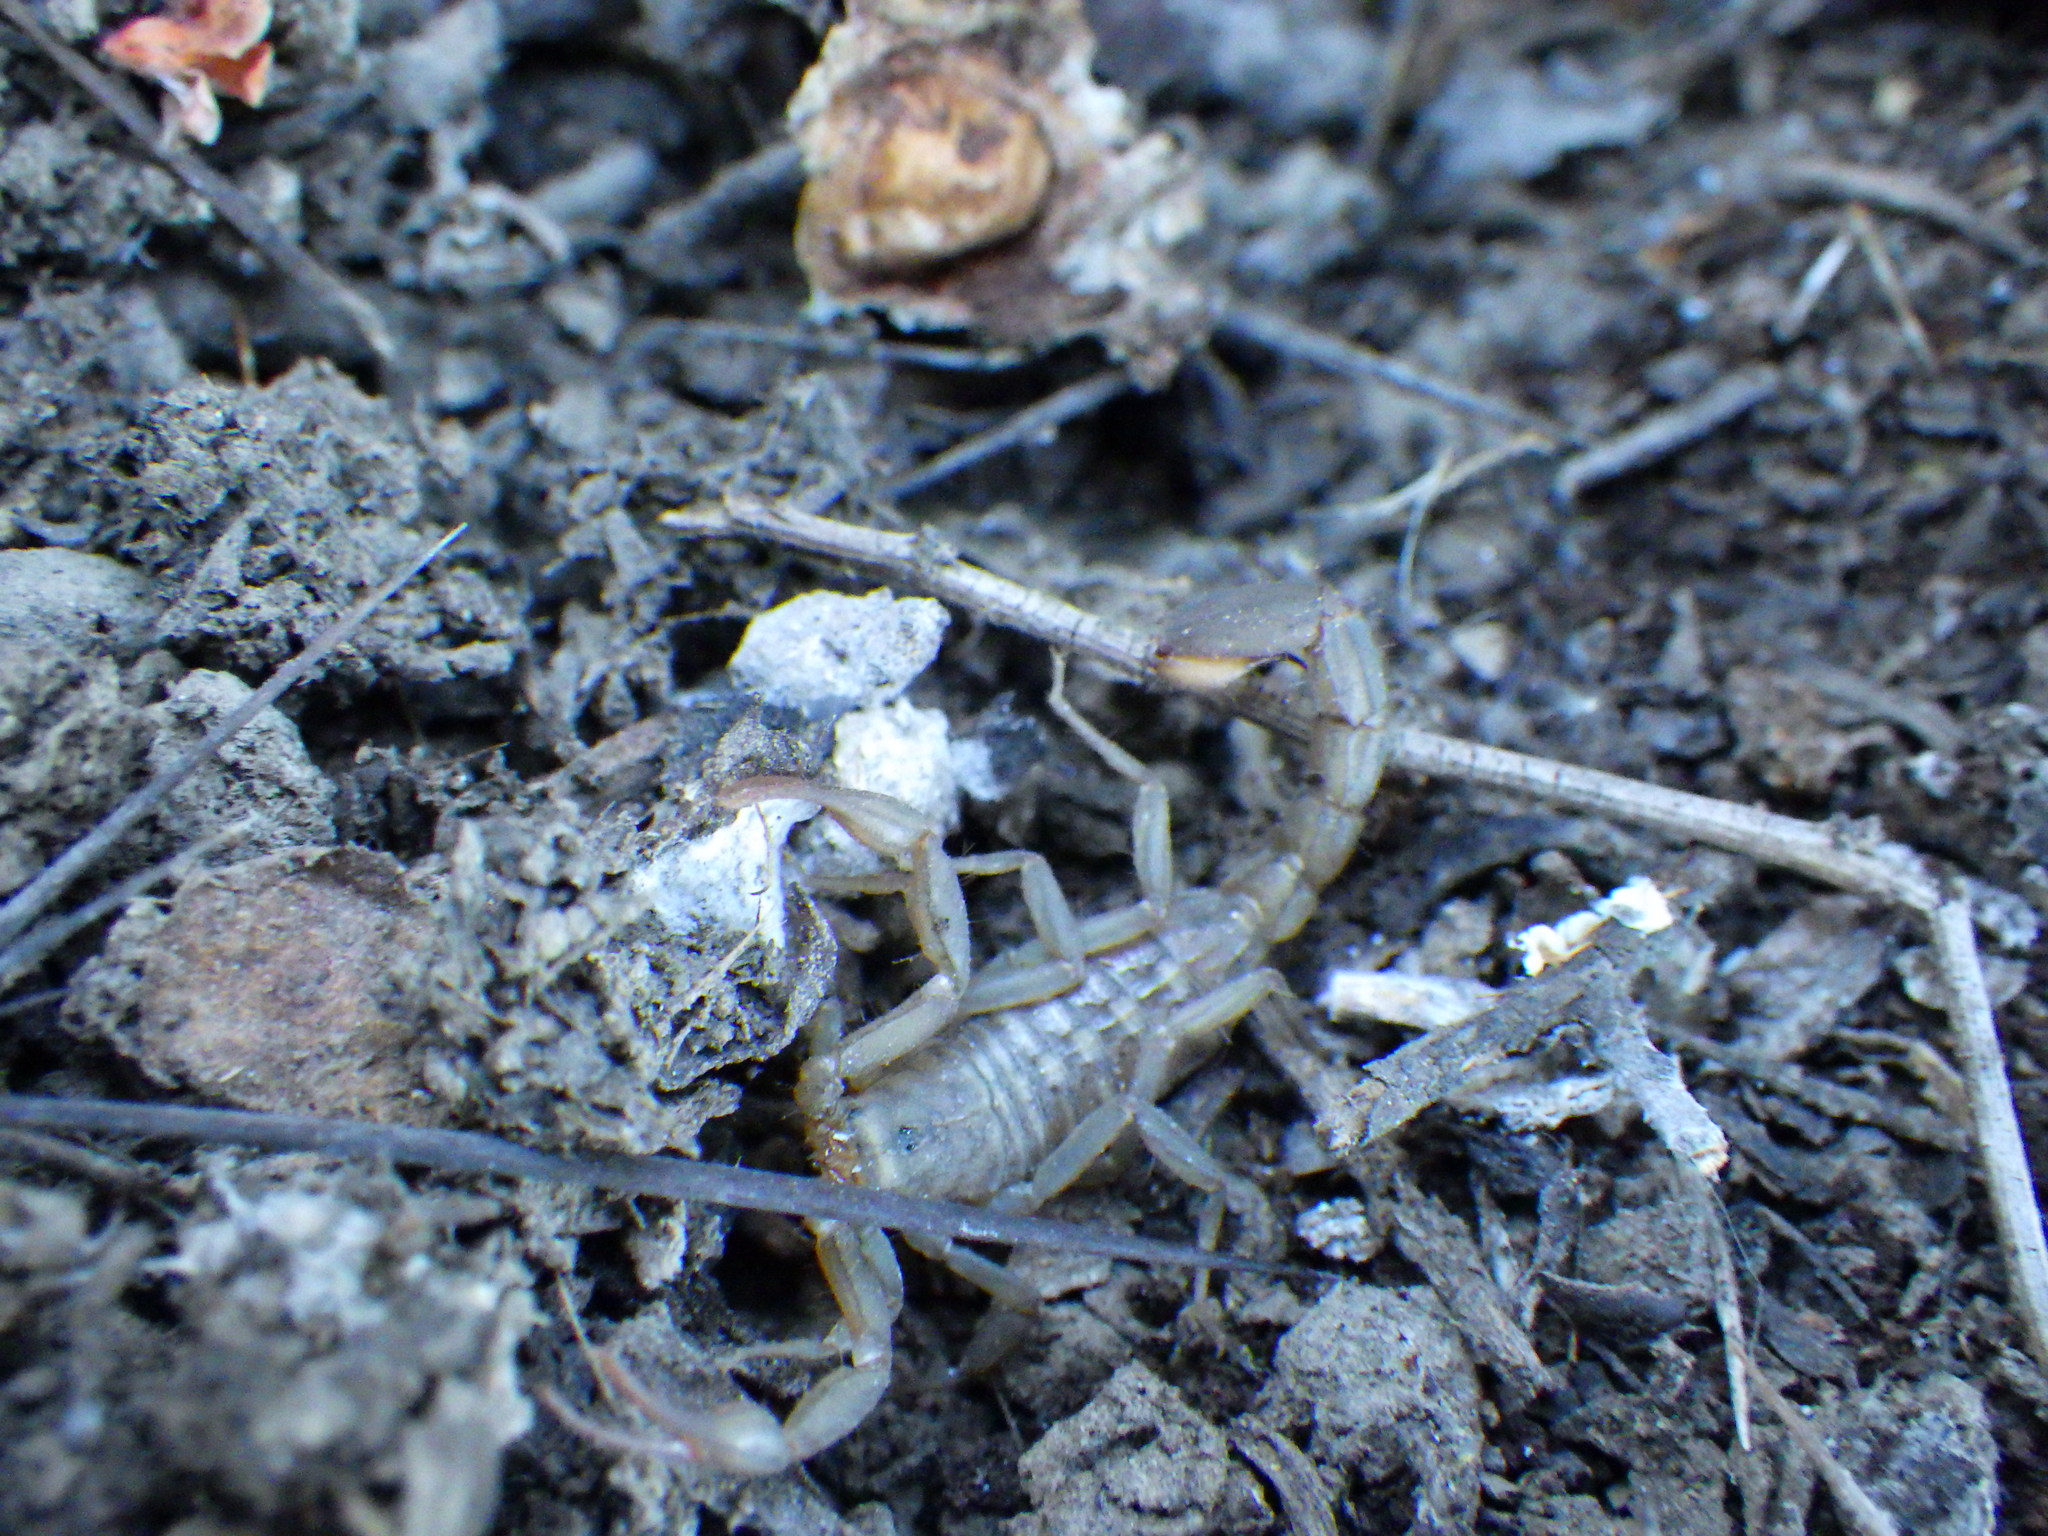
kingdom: Animalia
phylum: Arthropoda
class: Arachnida
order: Scorpiones
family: Vaejovidae
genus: Serradigitus
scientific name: Serradigitus gertschi
